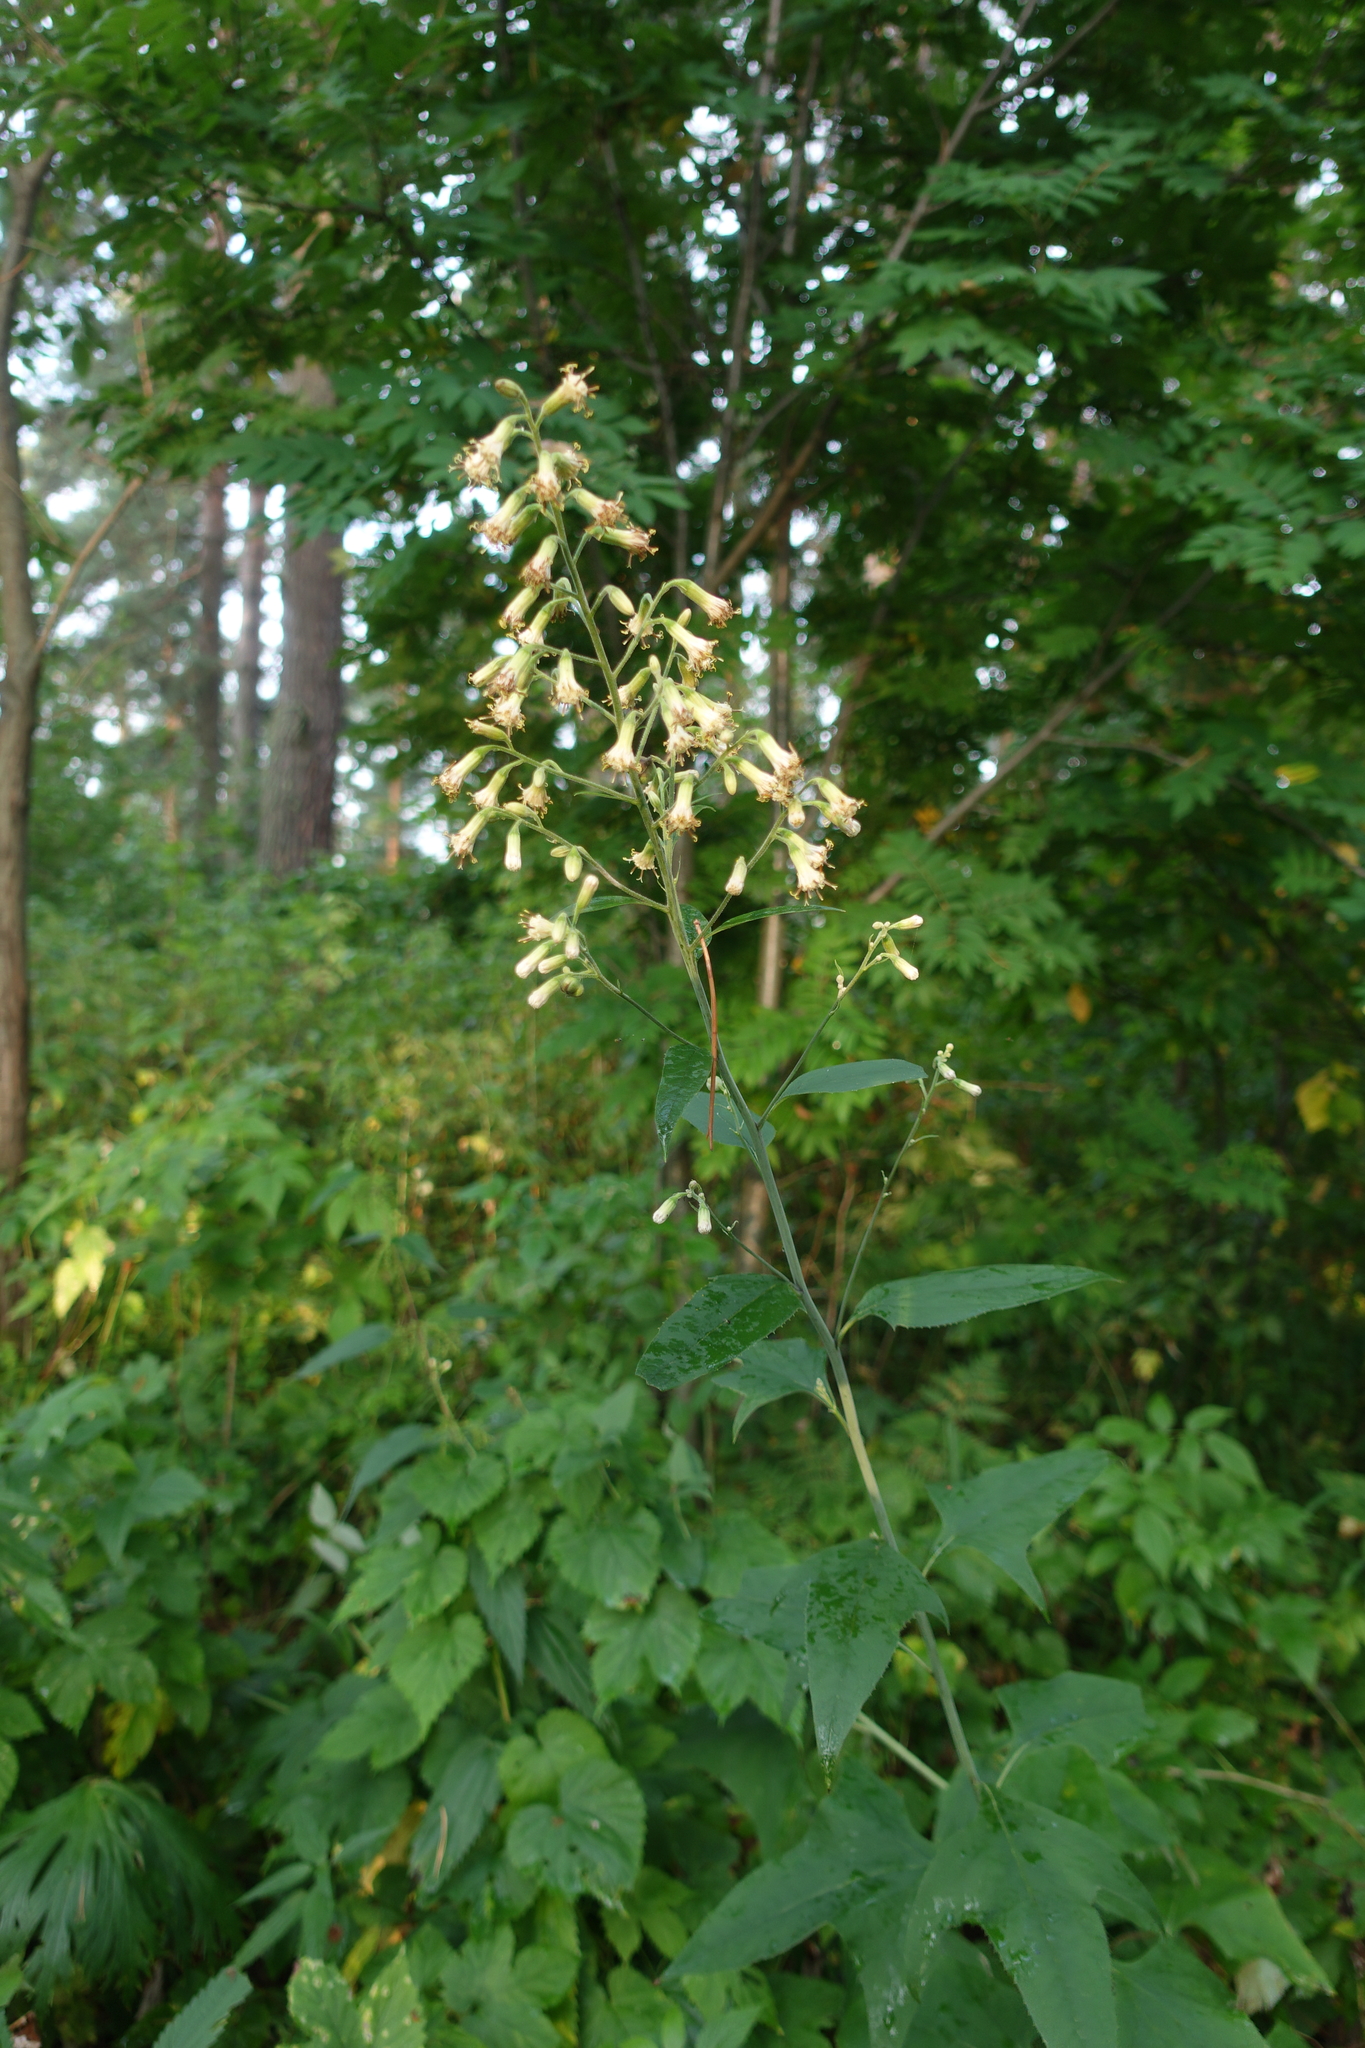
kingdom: Plantae
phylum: Tracheophyta
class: Magnoliopsida
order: Asterales
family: Asteraceae
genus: Parasenecio
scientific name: Parasenecio hastatus
